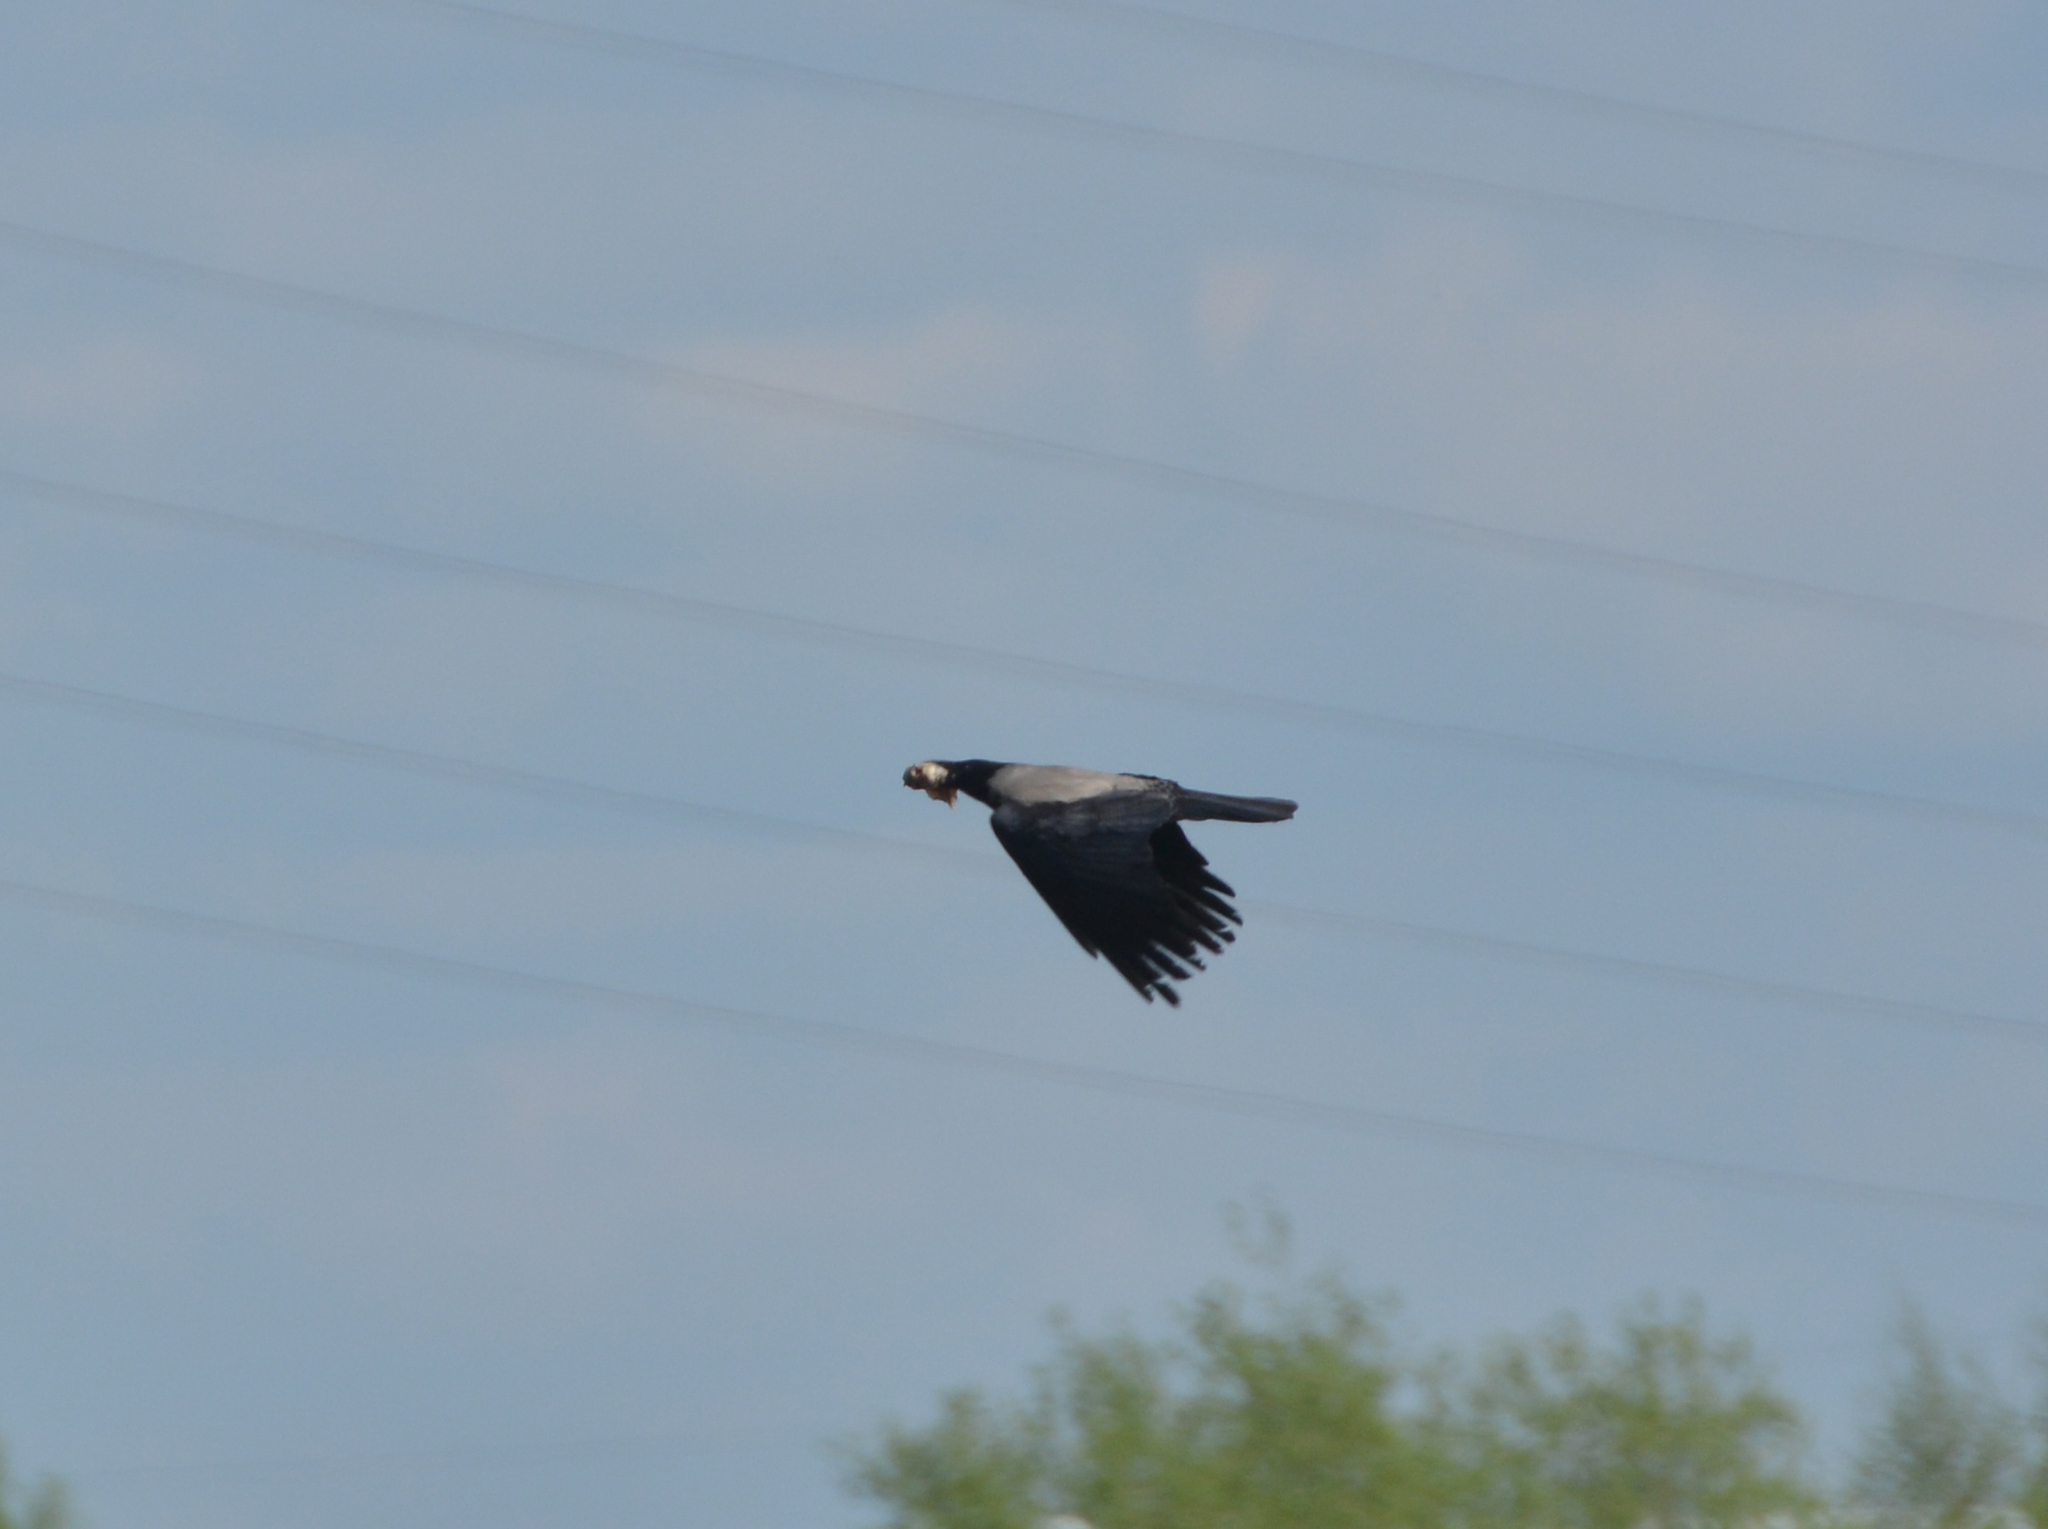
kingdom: Animalia
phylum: Chordata
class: Aves
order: Passeriformes
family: Corvidae
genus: Corvus
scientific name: Corvus cornix
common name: Hooded crow
